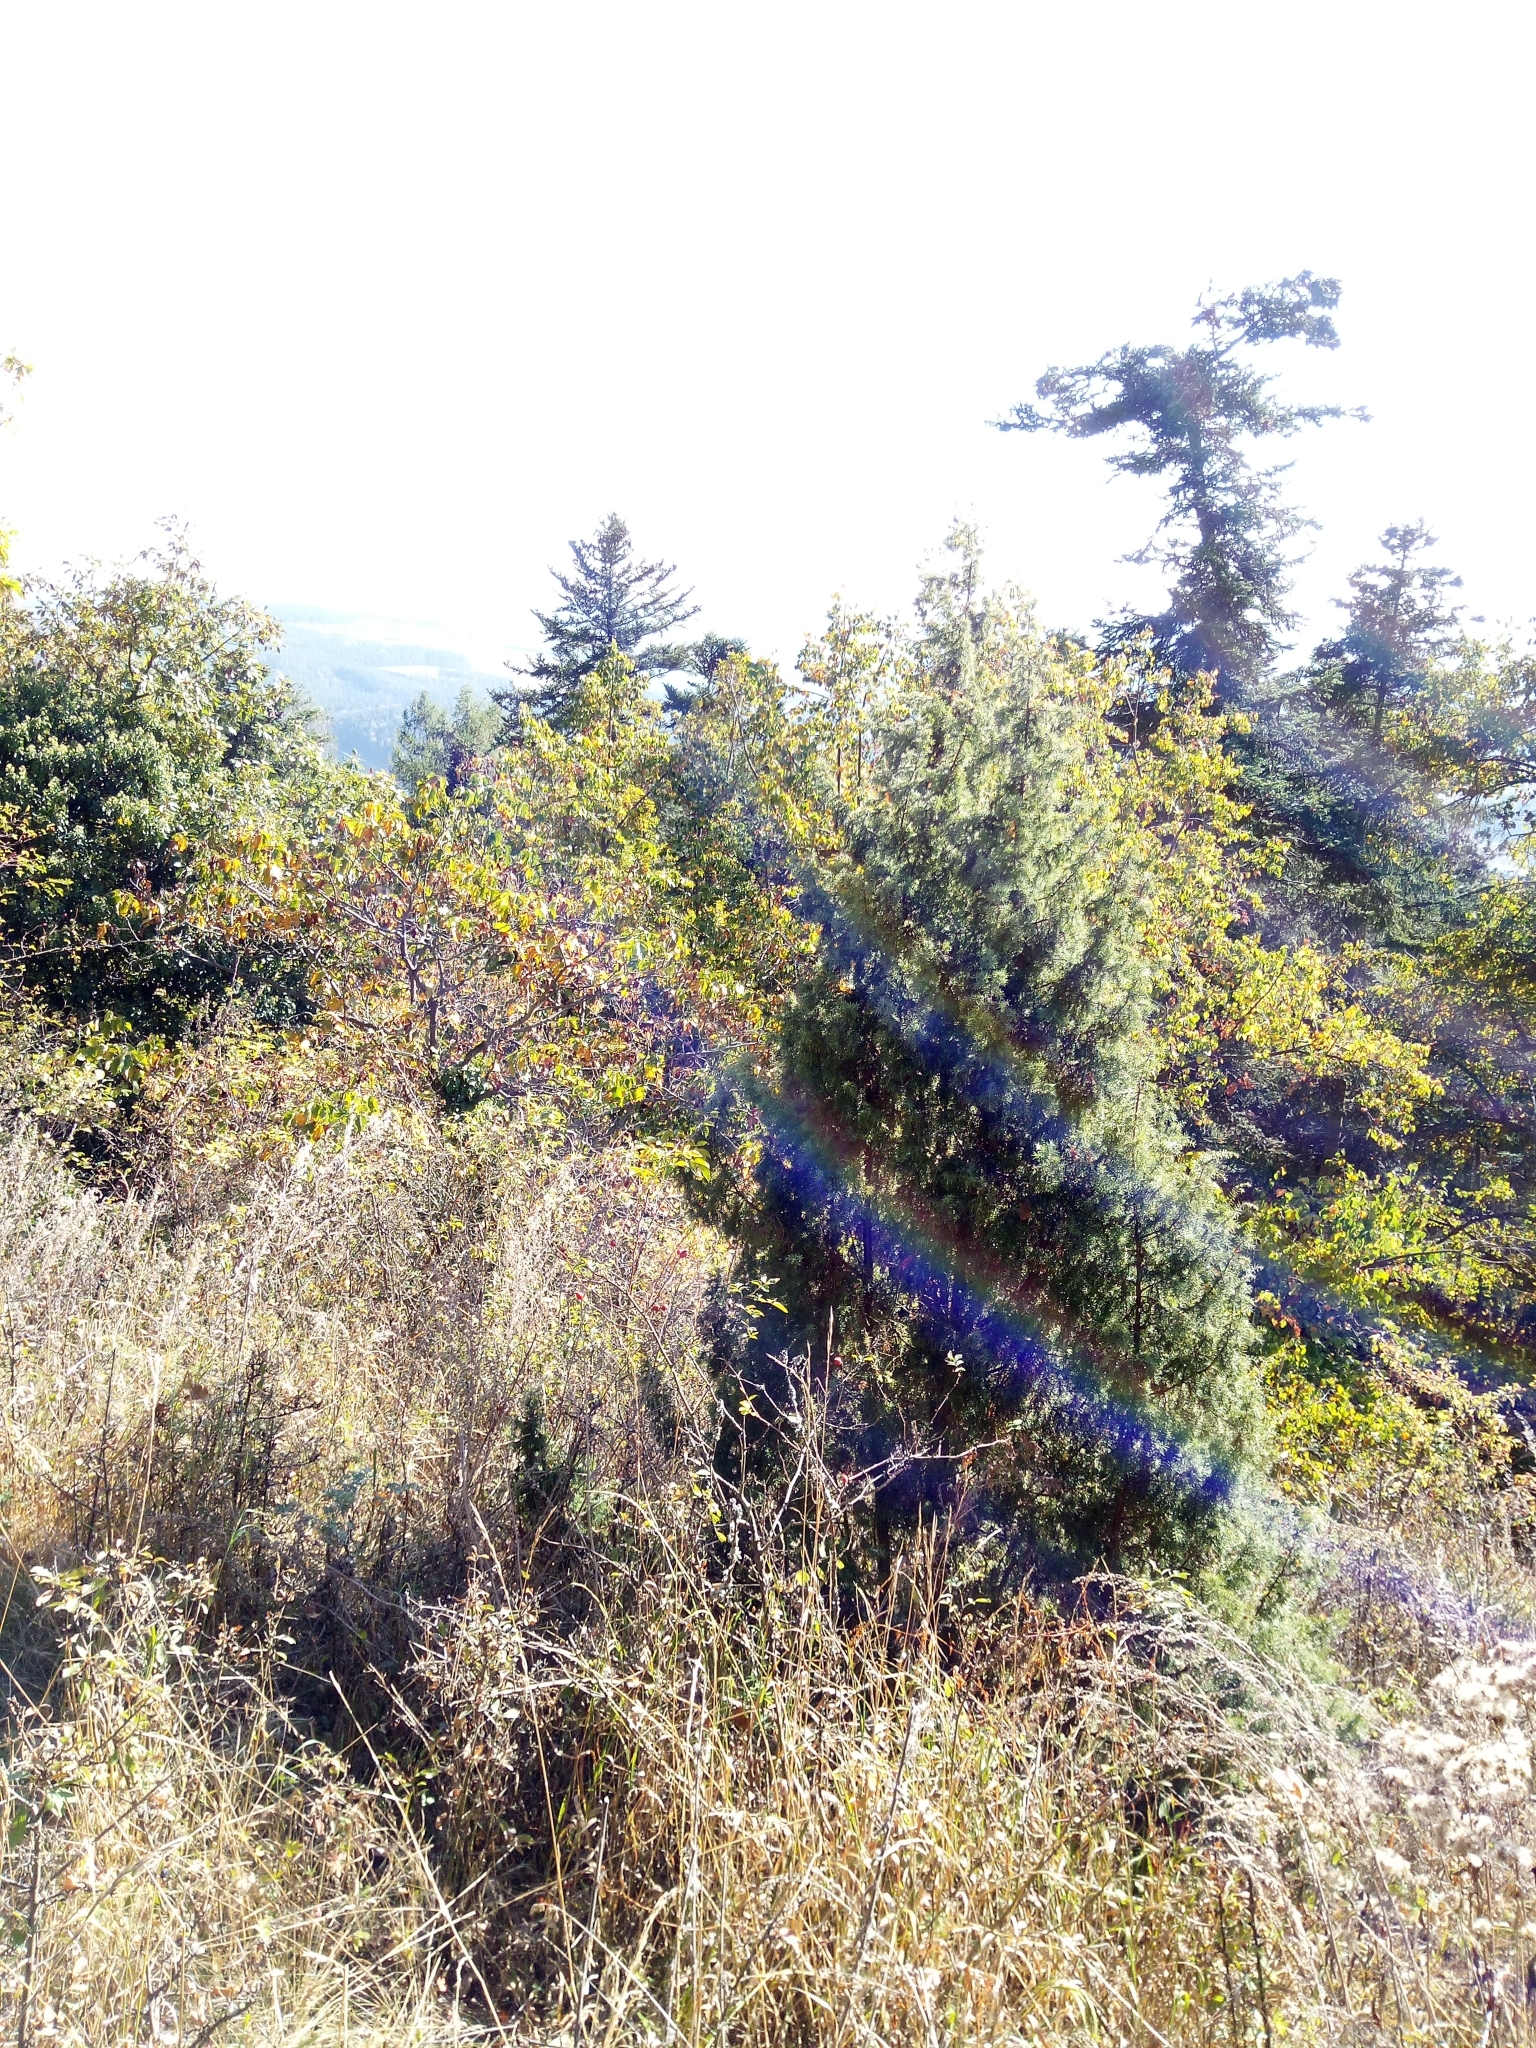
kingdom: Plantae
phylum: Tracheophyta
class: Pinopsida
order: Pinales
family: Cupressaceae
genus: Juniperus
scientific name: Juniperus communis
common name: Common juniper
